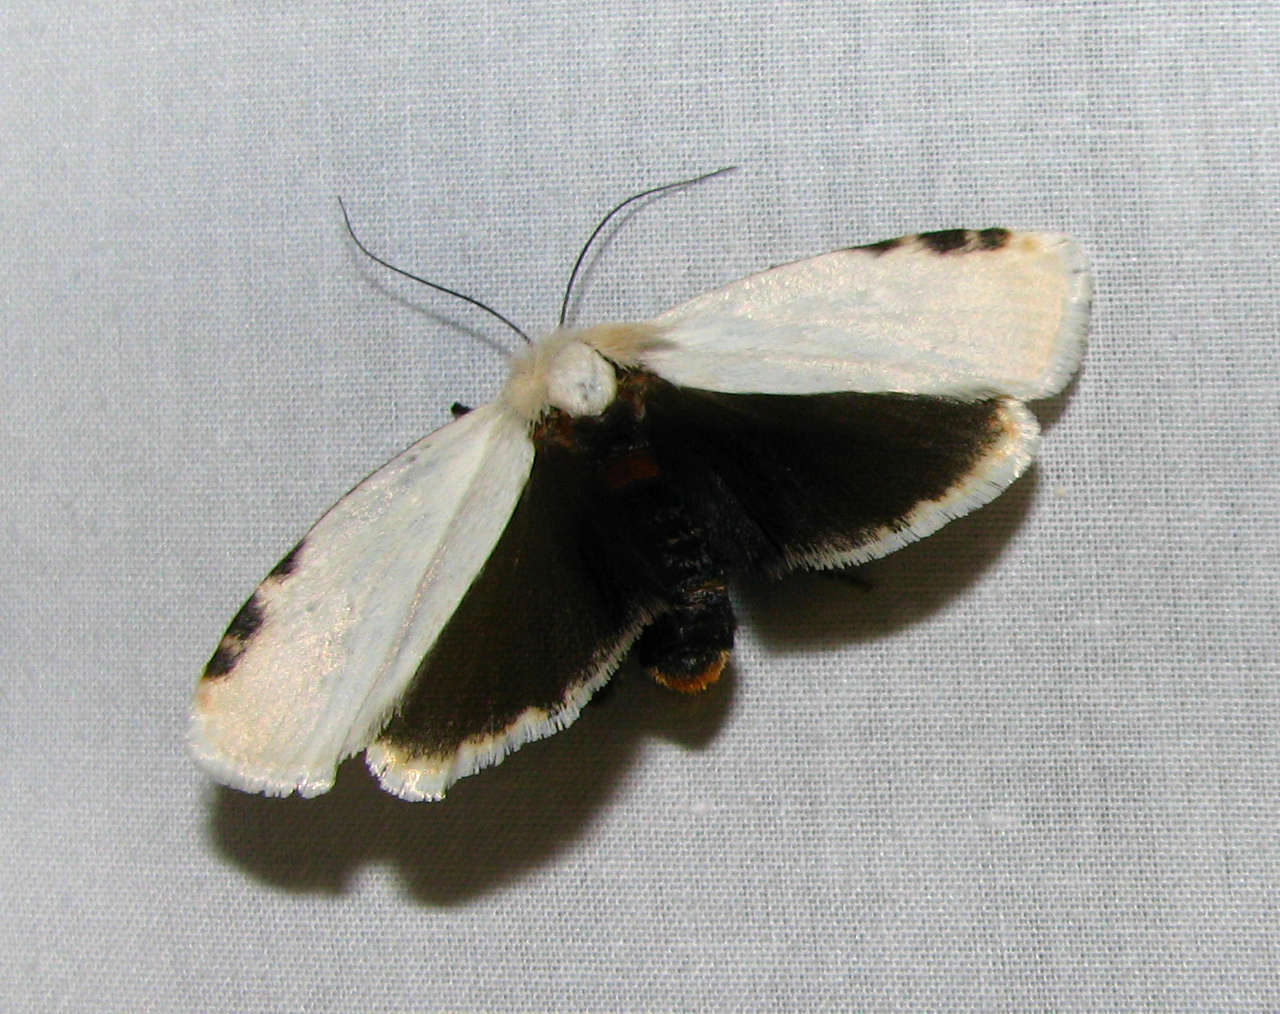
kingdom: Animalia
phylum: Arthropoda
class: Insecta
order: Lepidoptera
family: Xyloryctidae
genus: Cryptophasa
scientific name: Cryptophasa
